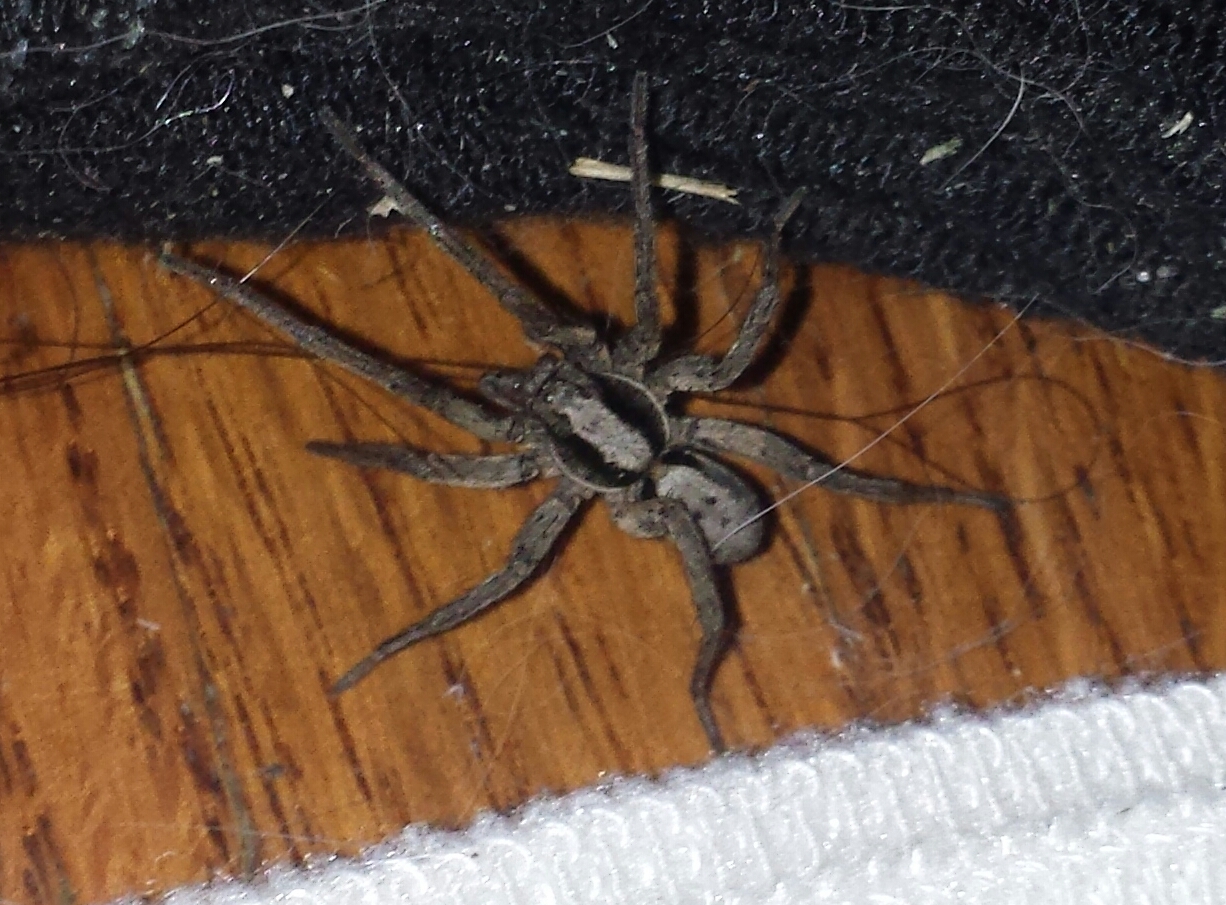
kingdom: Animalia
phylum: Arthropoda
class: Arachnida
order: Araneae
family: Lycosidae
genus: Hogna
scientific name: Hogna frondicola
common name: Forest wolf spider
